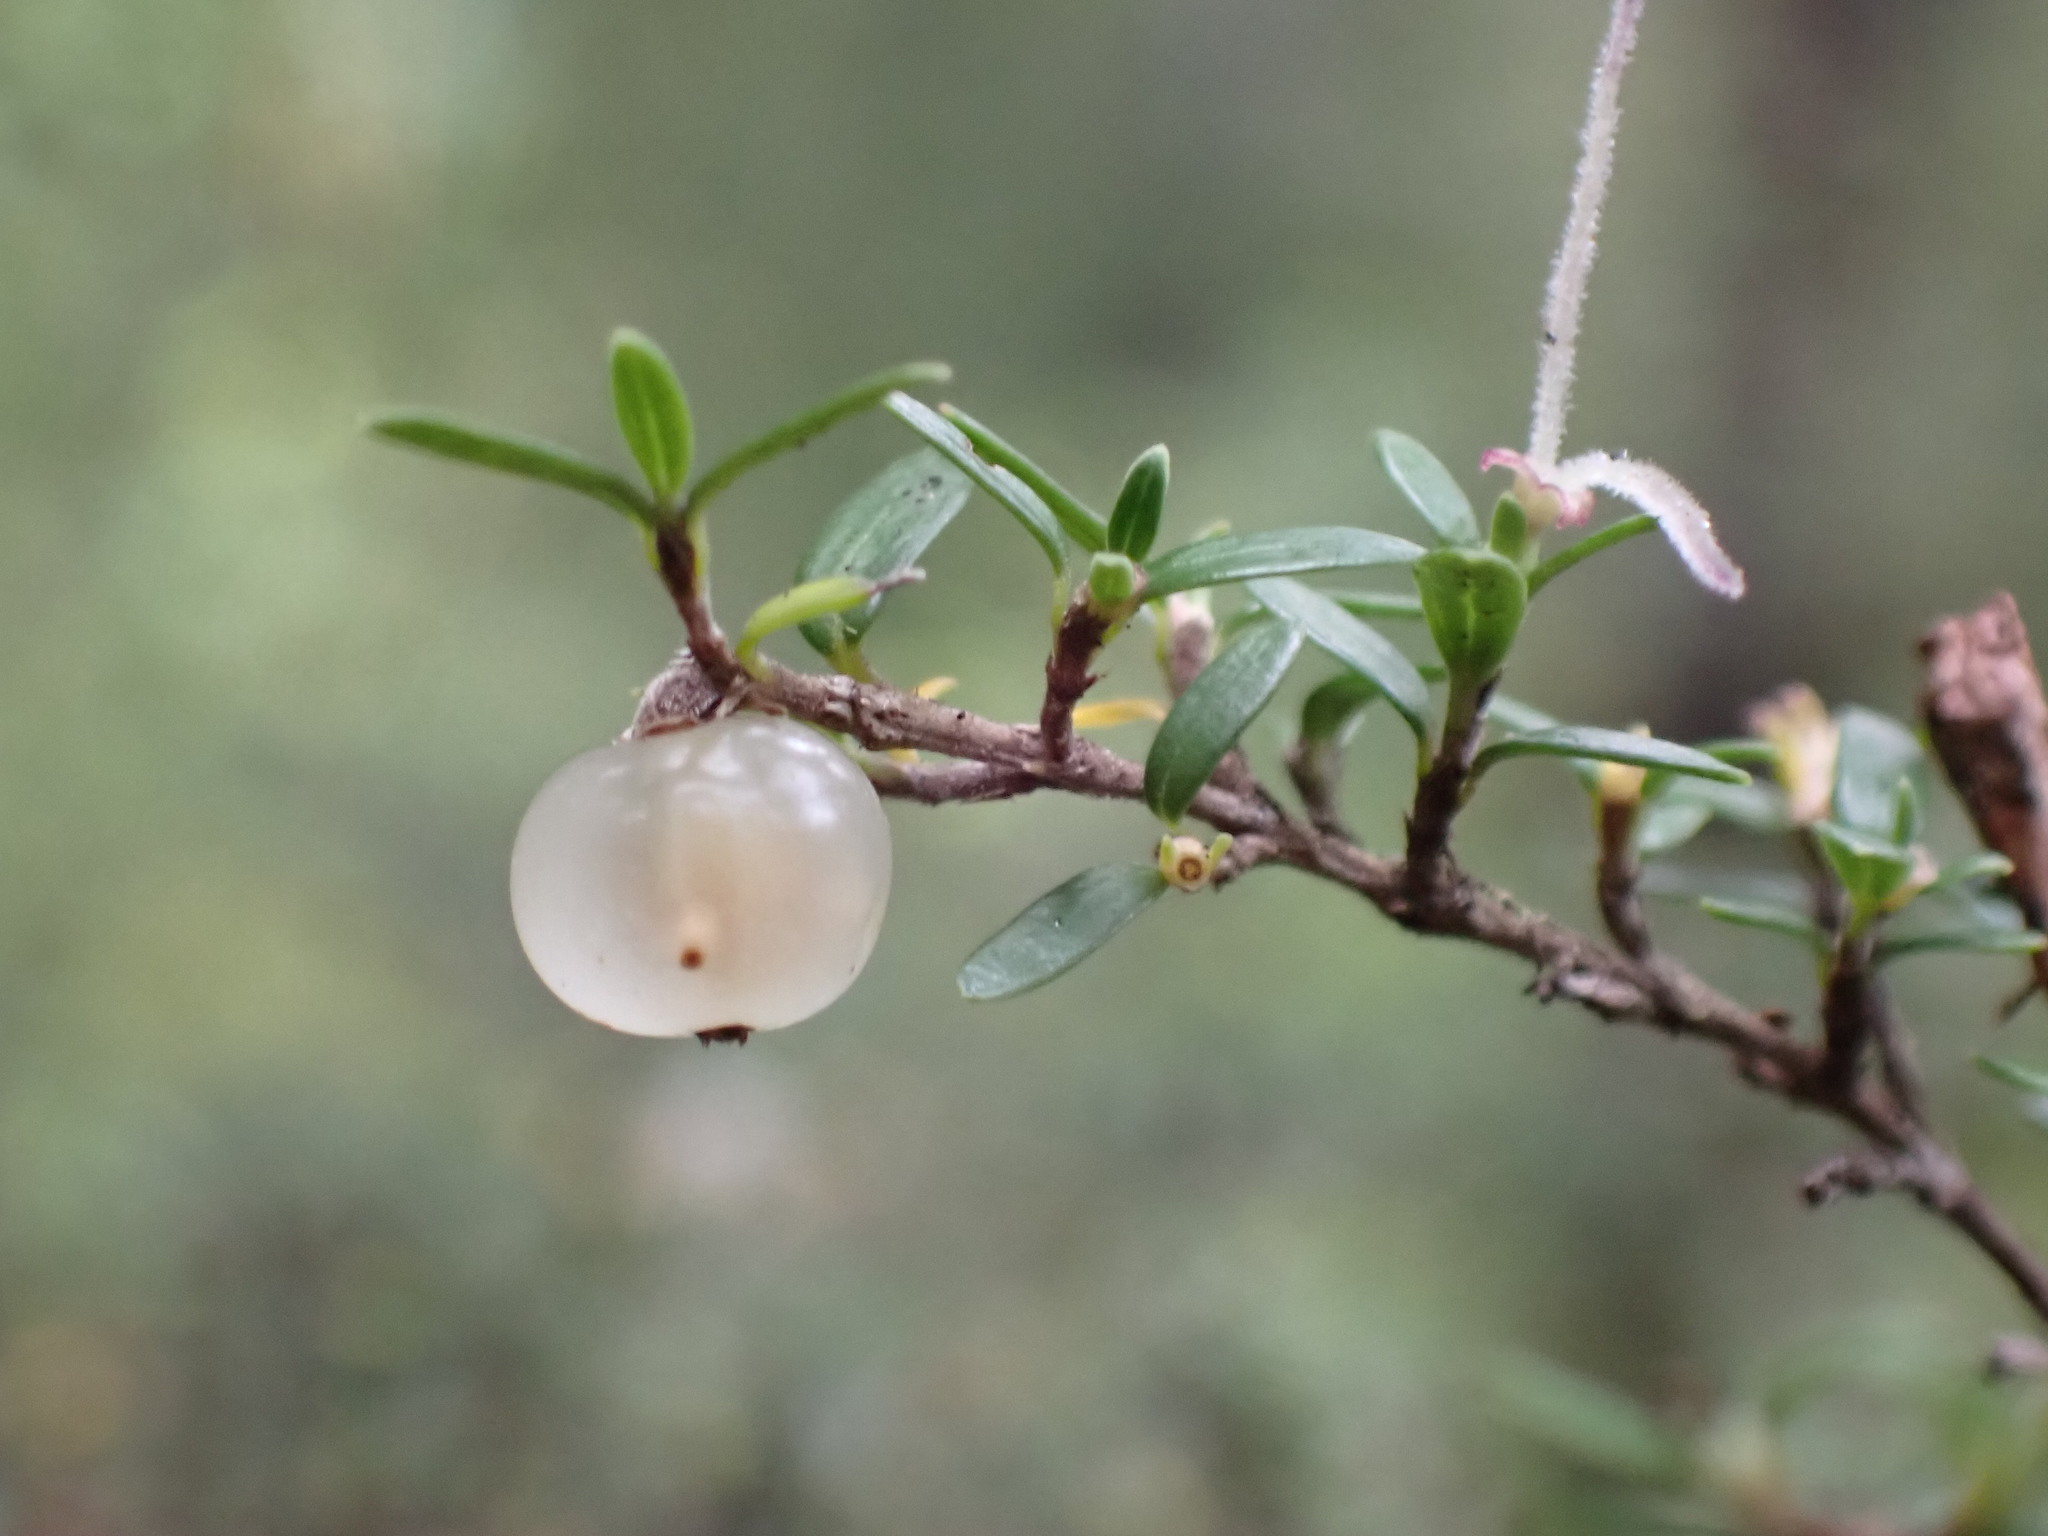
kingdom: Plantae
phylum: Tracheophyta
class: Magnoliopsida
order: Gentianales
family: Rubiaceae
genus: Coprosma
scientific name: Coprosma propinqua
